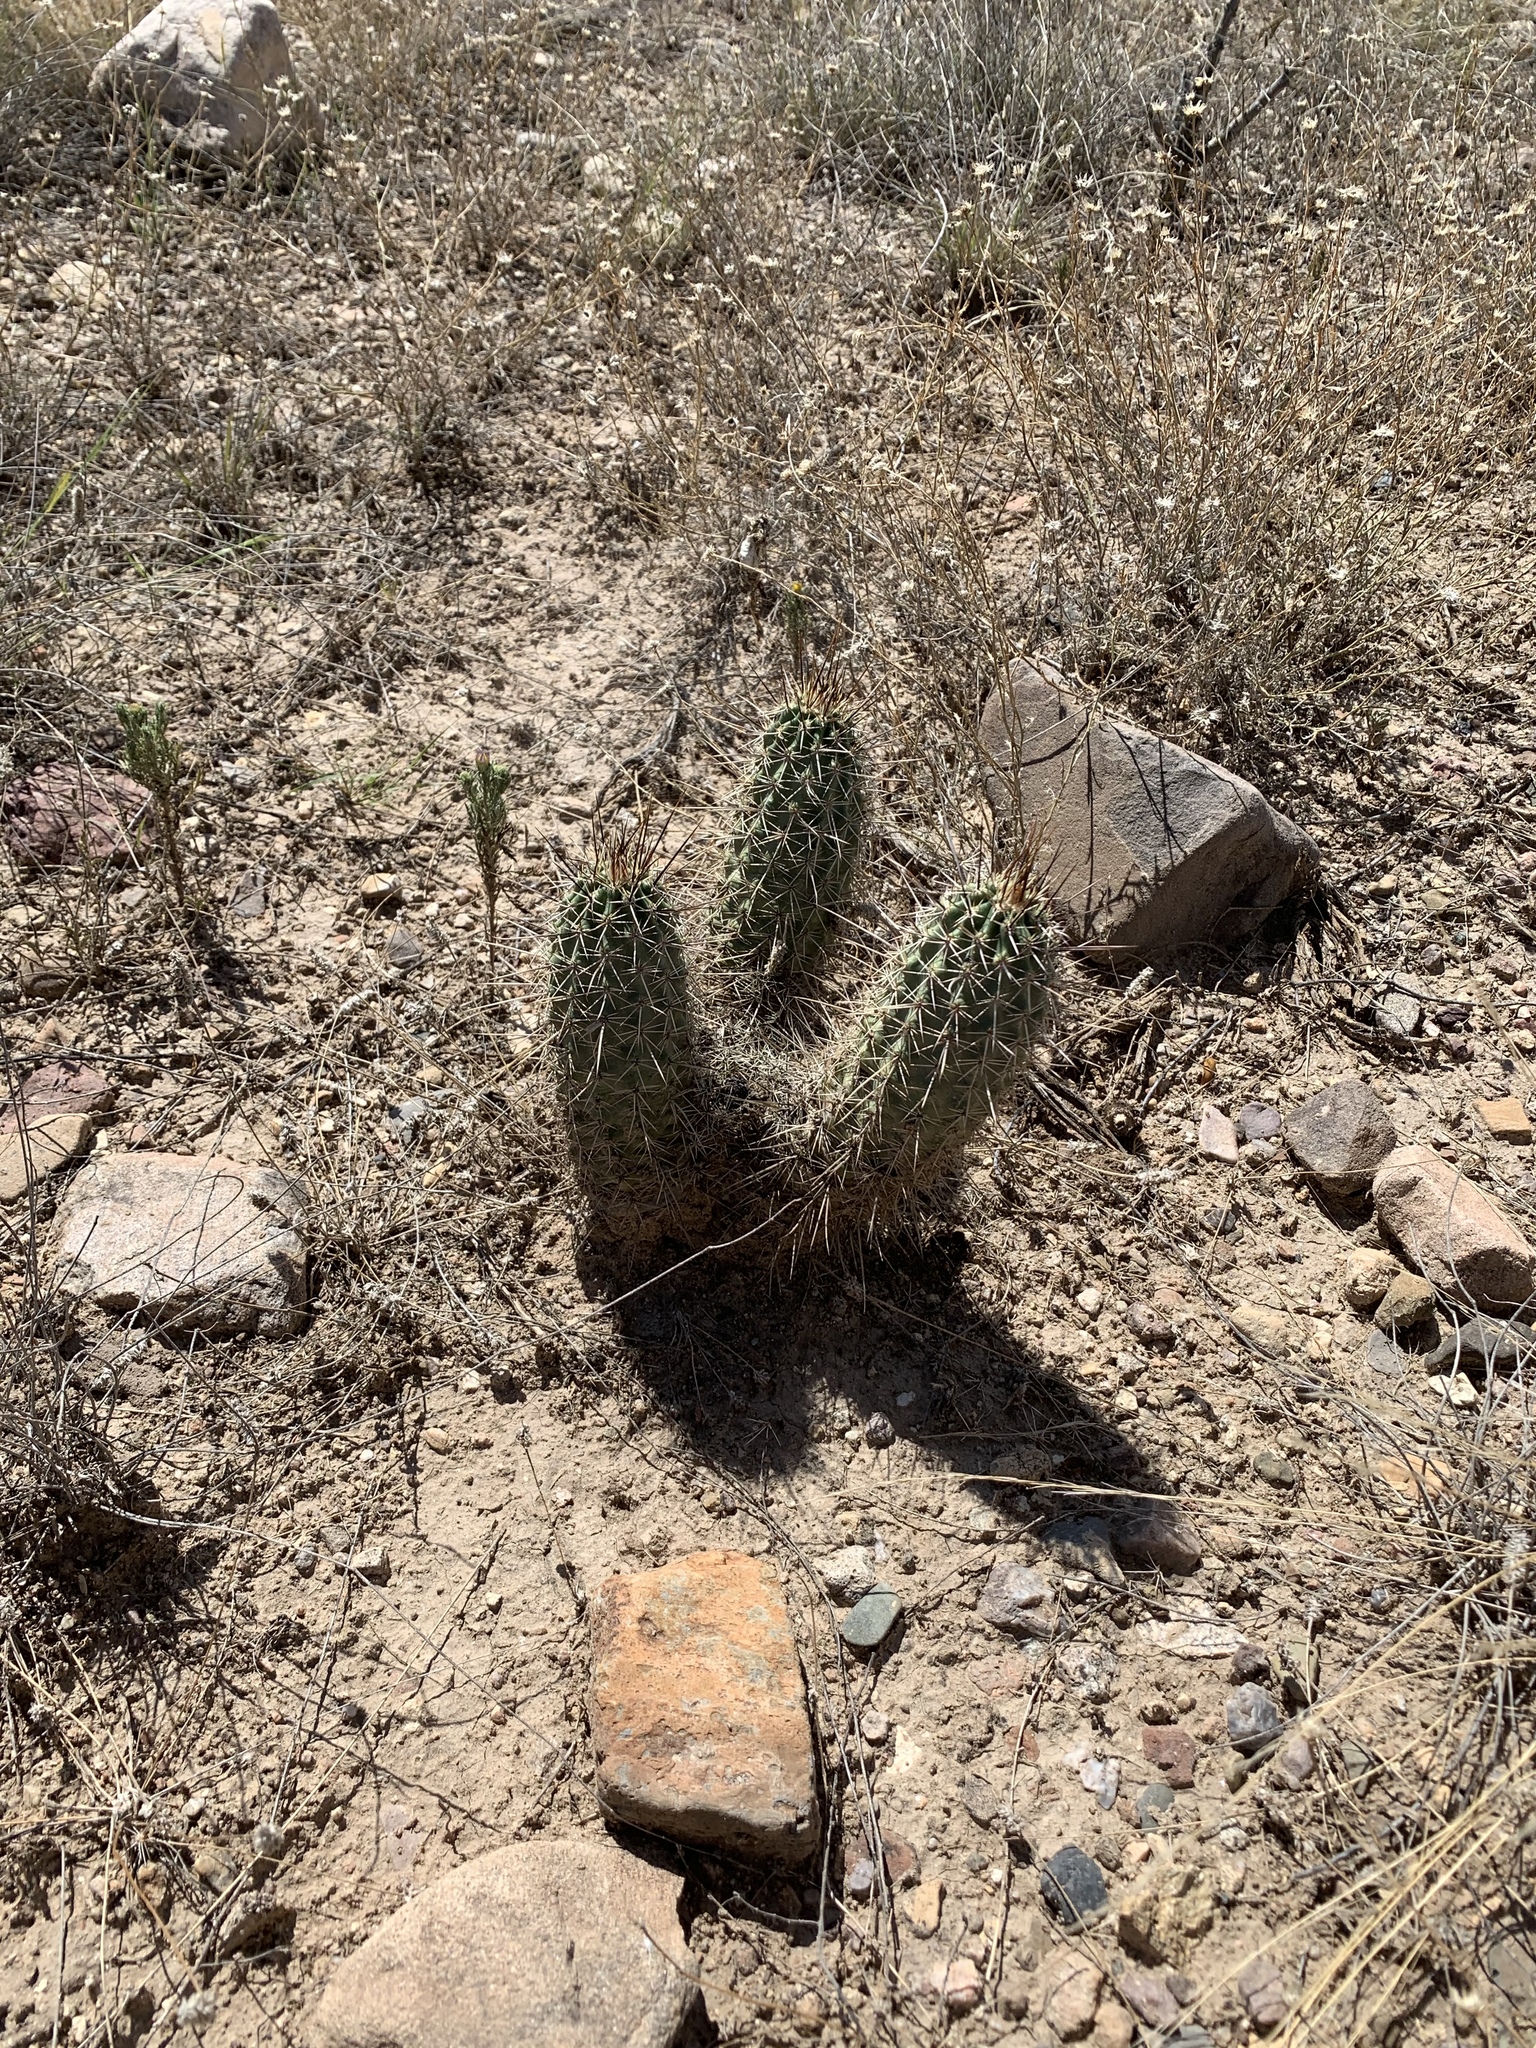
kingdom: Plantae
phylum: Tracheophyta
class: Magnoliopsida
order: Caryophyllales
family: Cactaceae
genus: Echinocereus
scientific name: Echinocereus fasciculatus
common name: Bundle hedgehog
